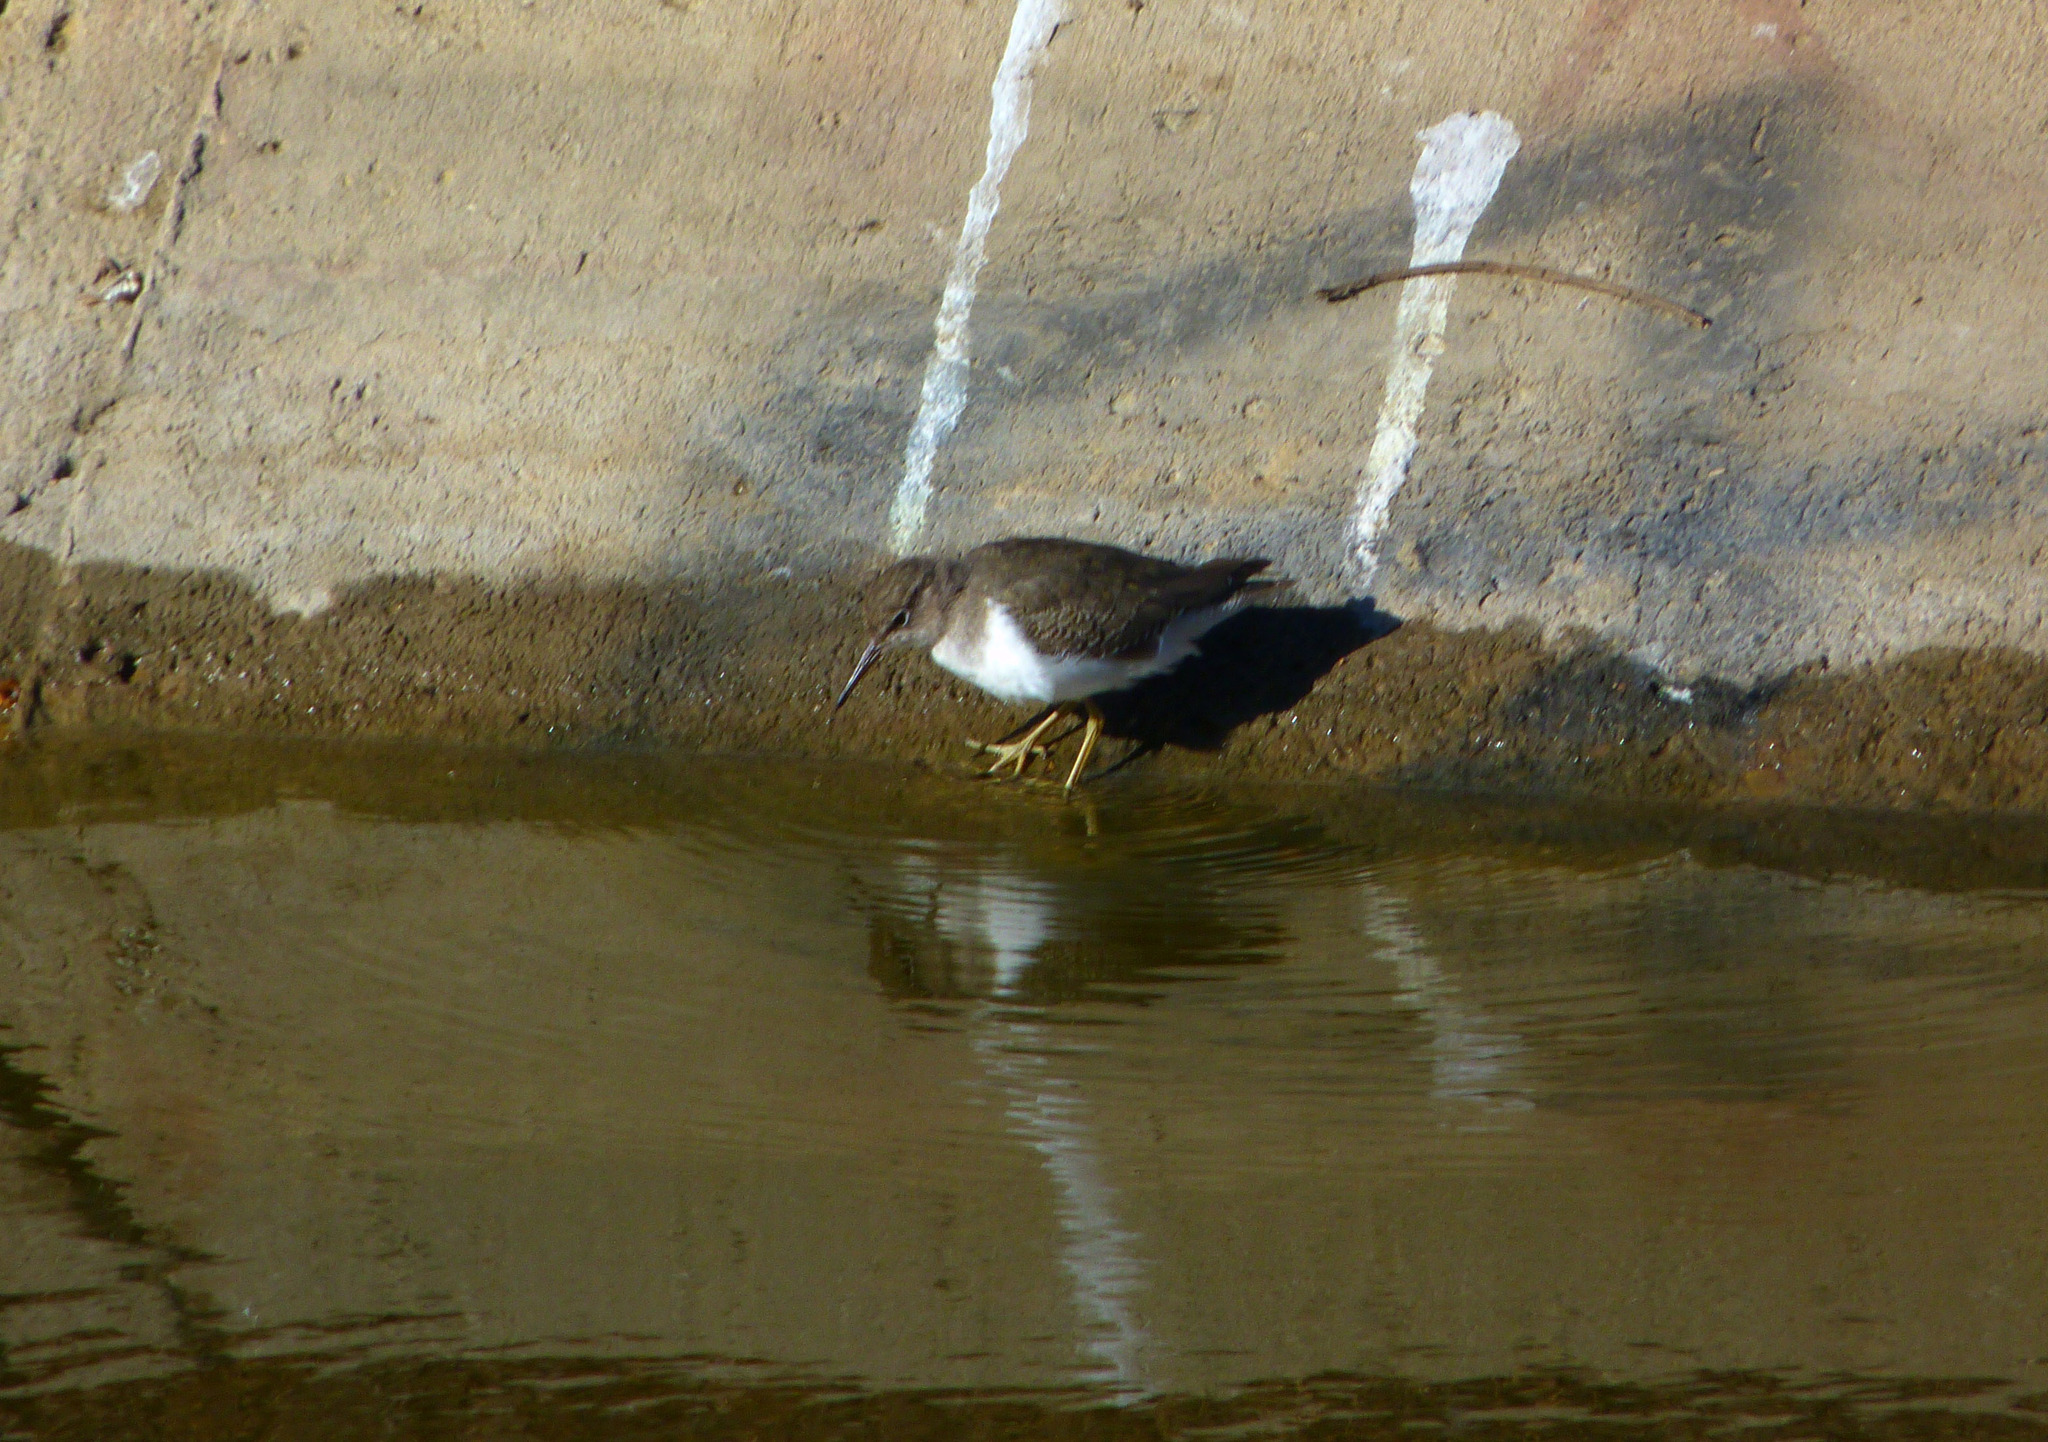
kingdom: Animalia
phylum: Chordata
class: Aves
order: Charadriiformes
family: Scolopacidae
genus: Actitis
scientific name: Actitis macularius
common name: Spotted sandpiper
